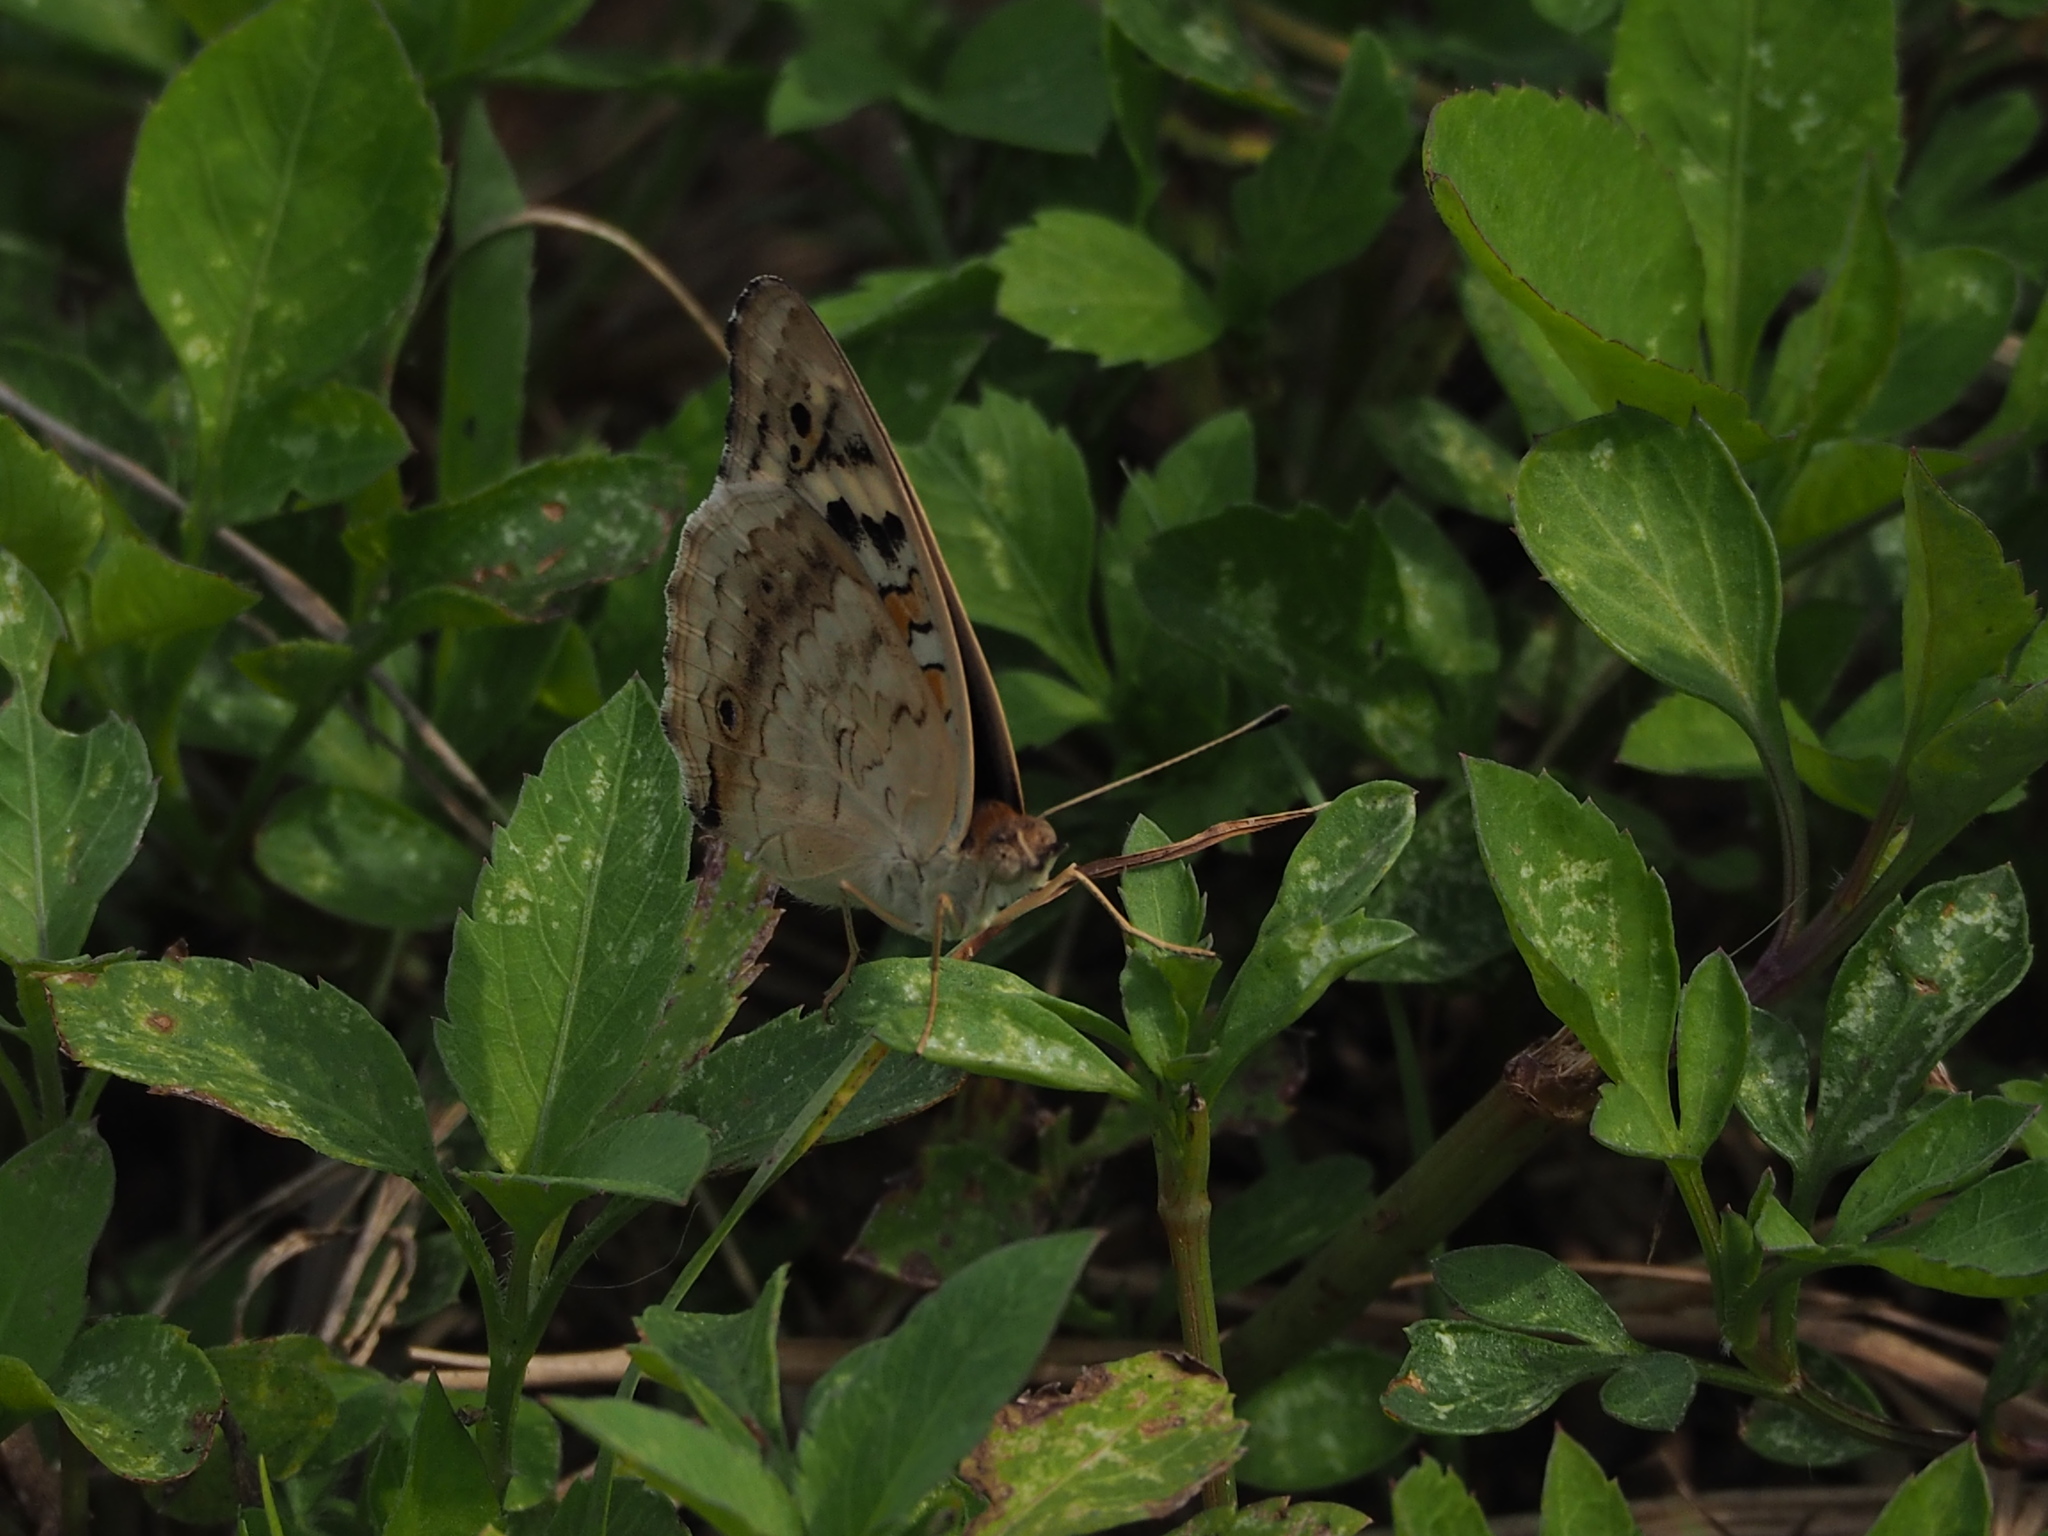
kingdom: Animalia
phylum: Arthropoda
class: Insecta
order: Lepidoptera
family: Nymphalidae
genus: Junonia
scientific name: Junonia orithya
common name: Blue pansy
